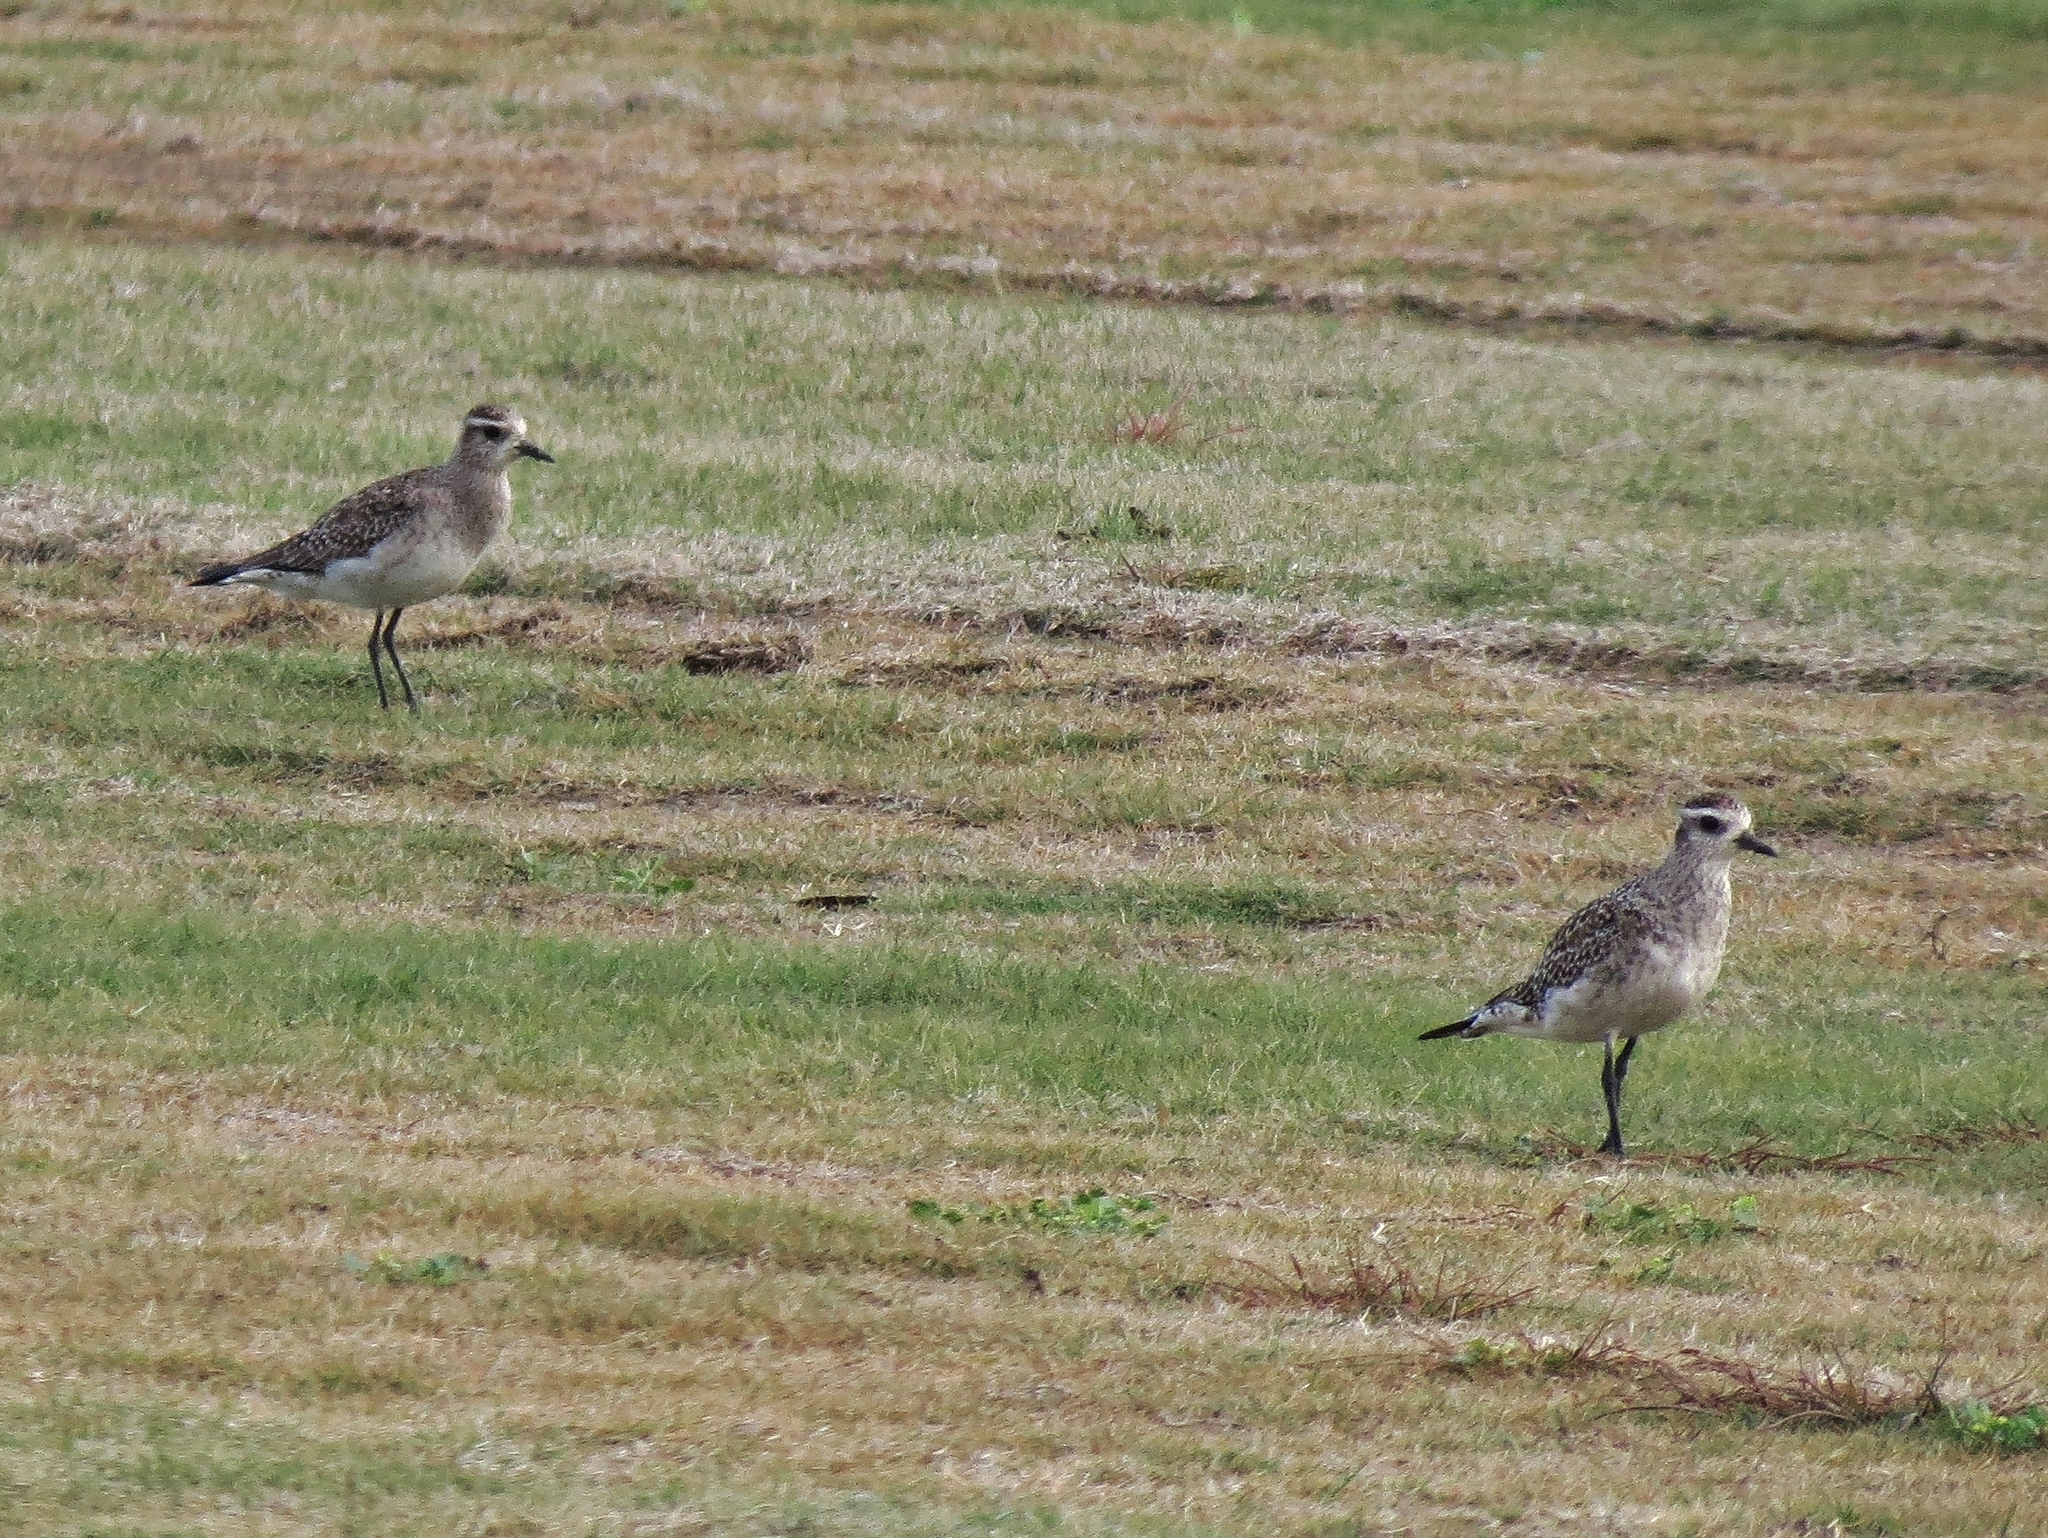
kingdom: Animalia
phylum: Chordata
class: Aves
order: Charadriiformes
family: Charadriidae
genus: Pluvialis
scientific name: Pluvialis dominica
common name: American golden plover
